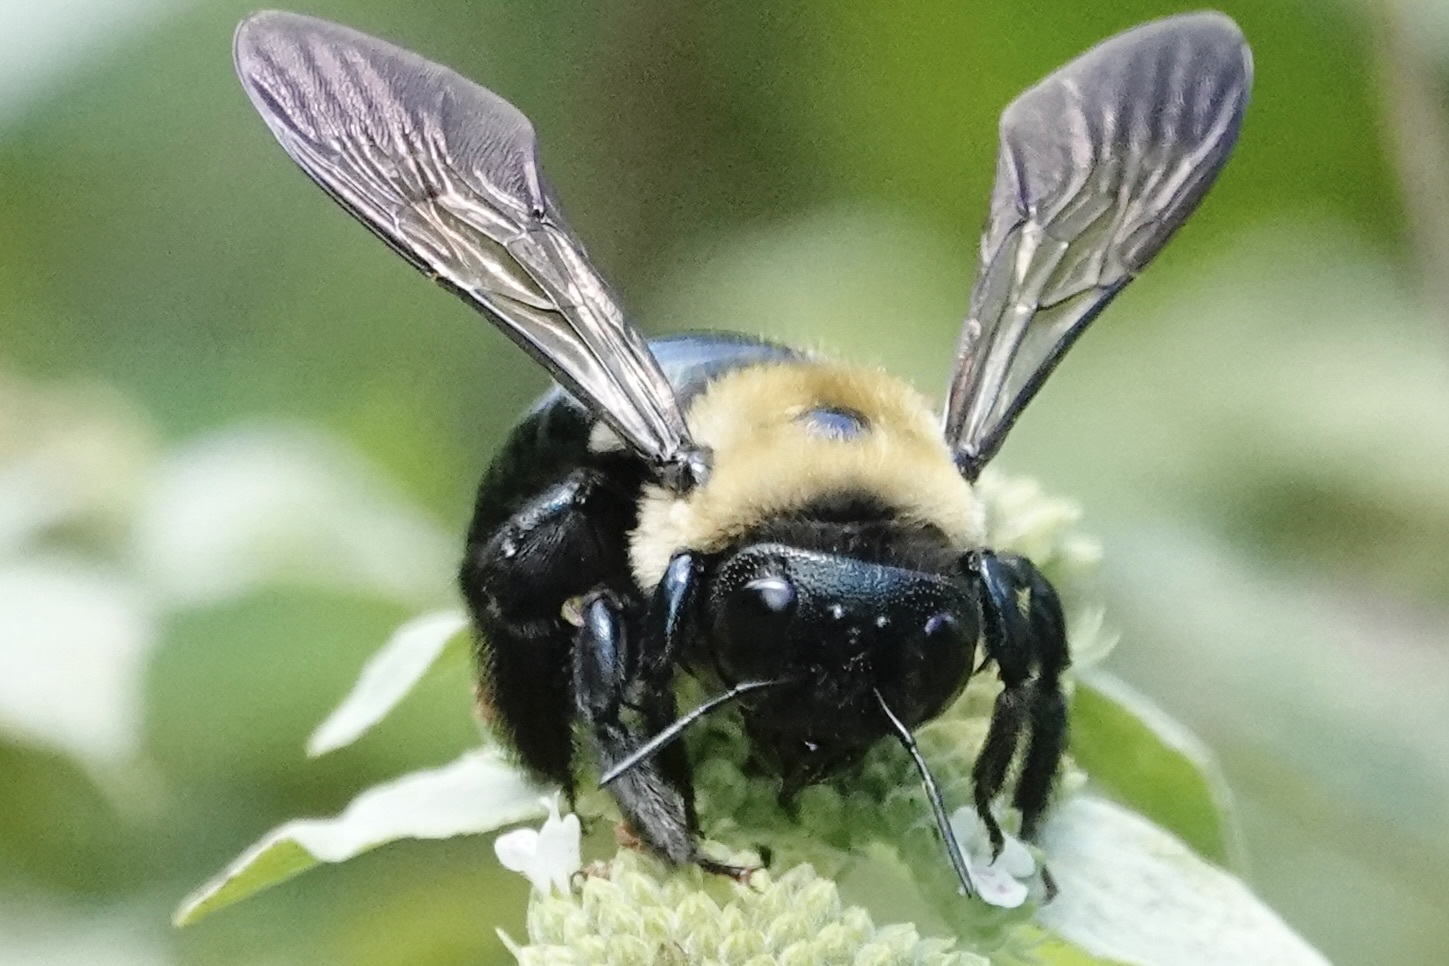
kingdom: Animalia
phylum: Arthropoda
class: Insecta
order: Hymenoptera
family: Apidae
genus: Xylocopa
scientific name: Xylocopa virginica
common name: Carpenter bee
